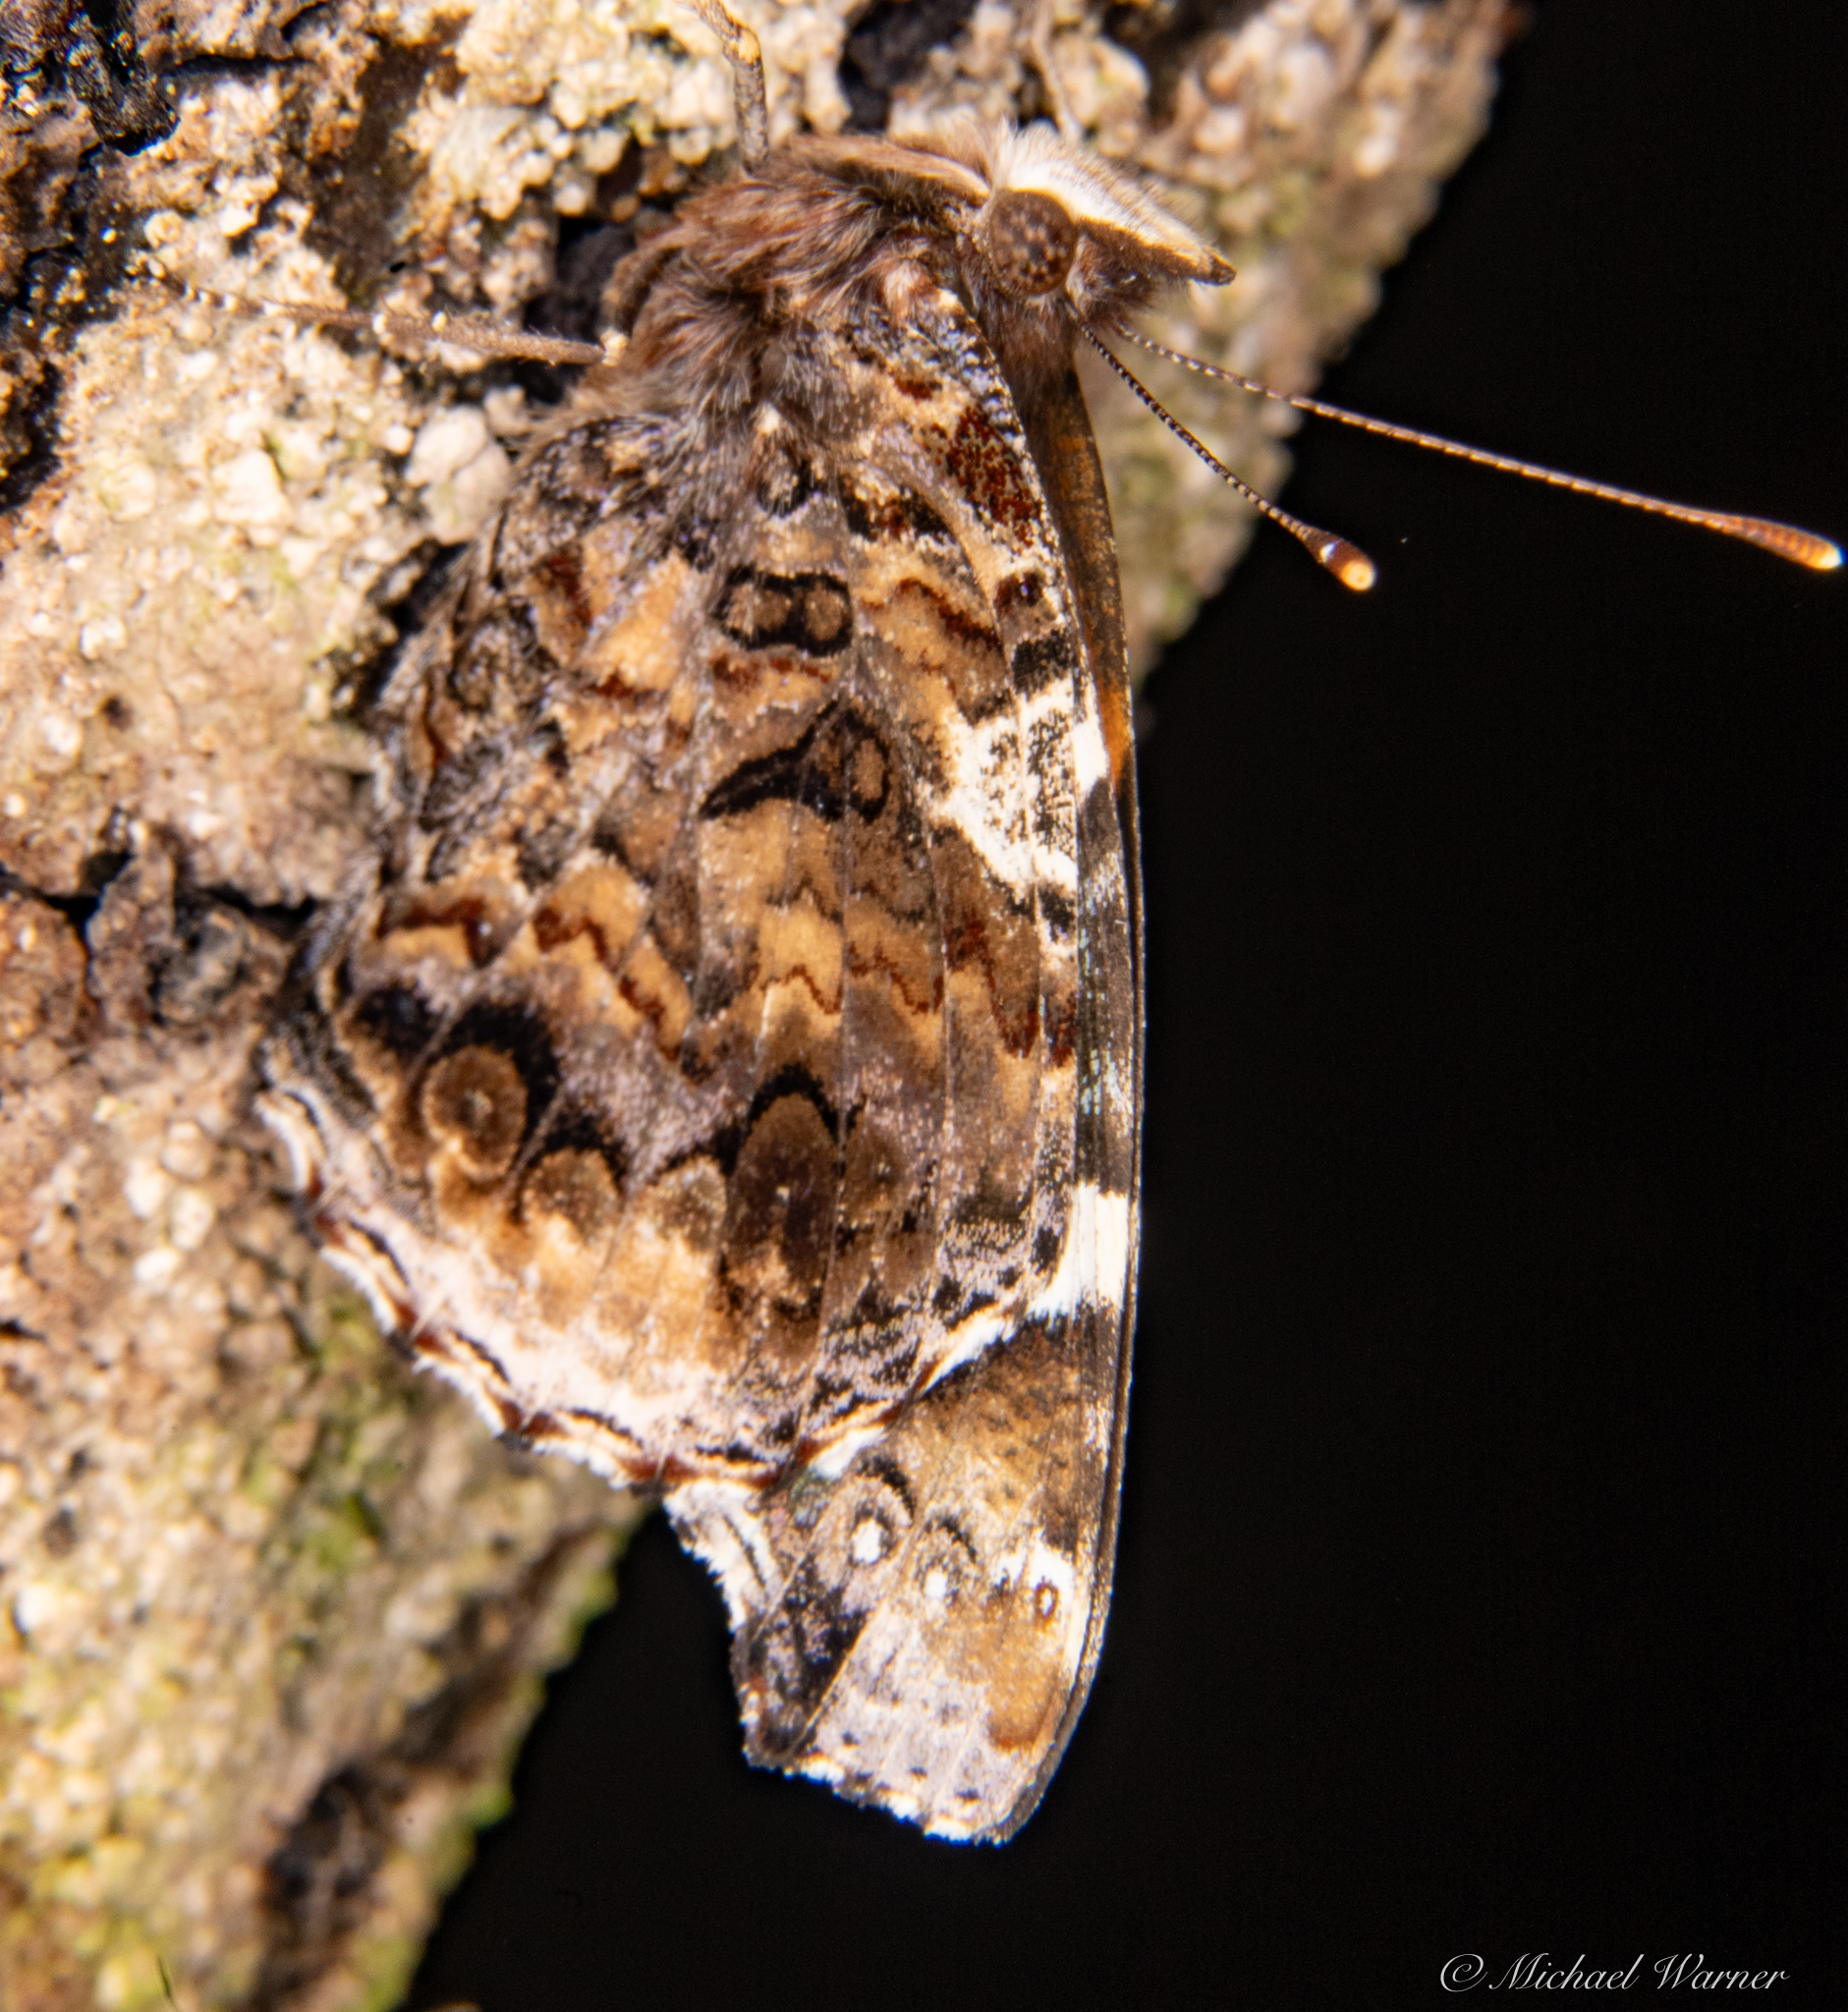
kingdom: Animalia
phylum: Arthropoda
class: Insecta
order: Lepidoptera
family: Nymphalidae
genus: Vanessa
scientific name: Vanessa atalanta
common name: Red admiral
